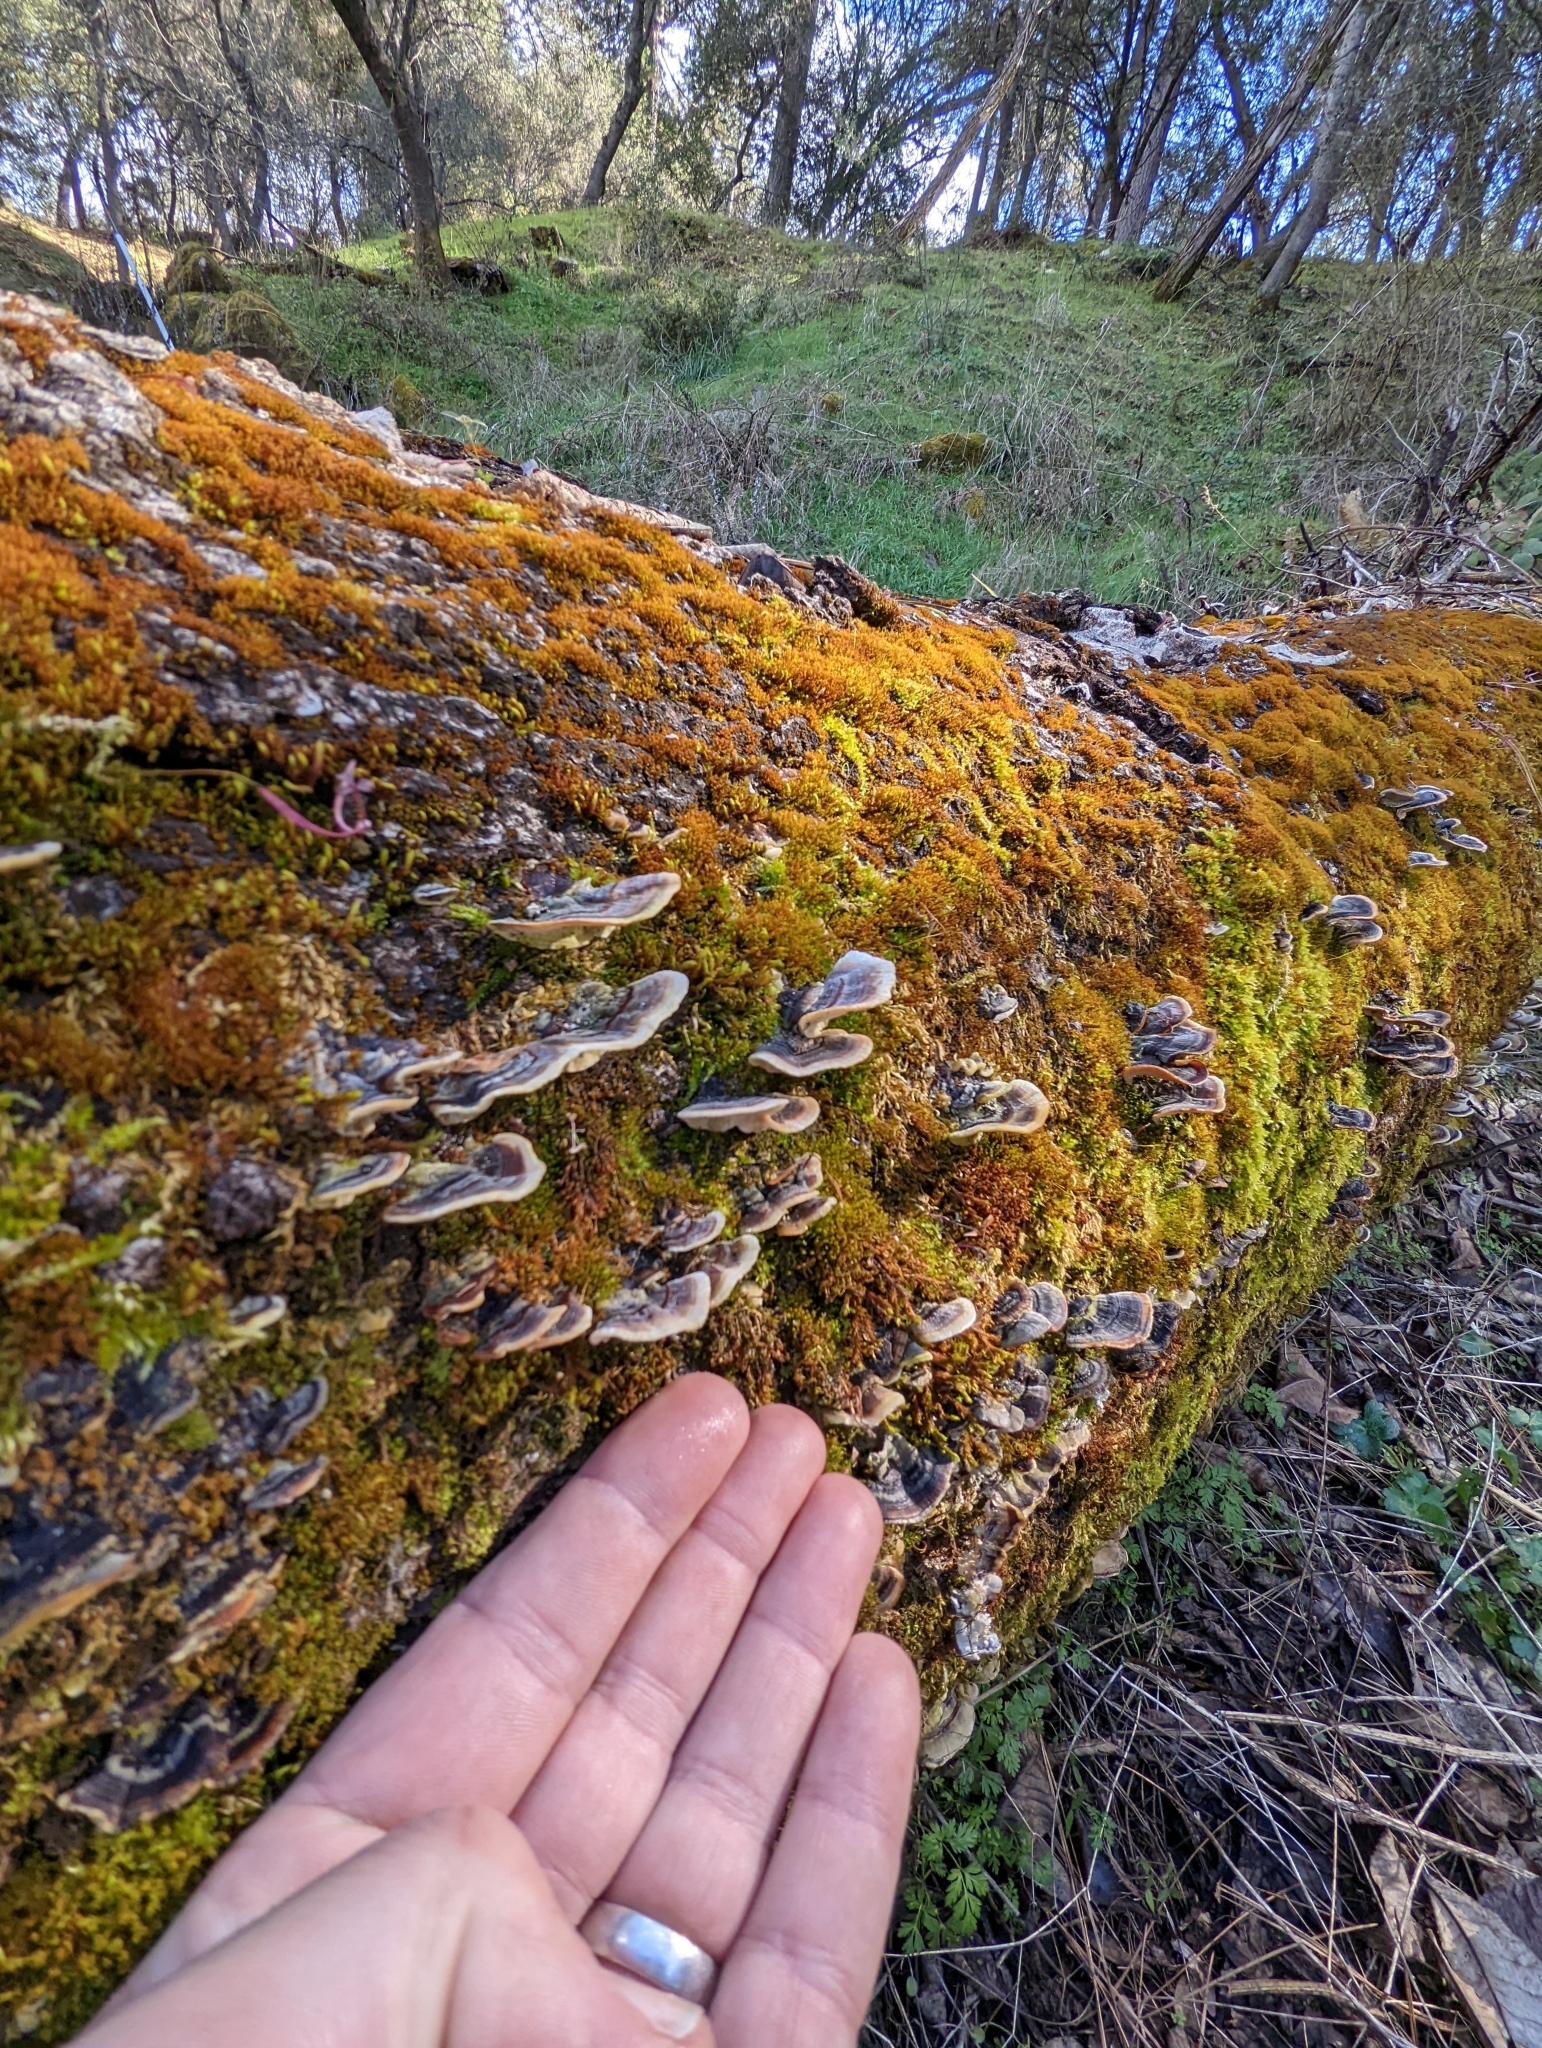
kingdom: Fungi
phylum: Basidiomycota
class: Agaricomycetes
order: Polyporales
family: Polyporaceae
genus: Trametes
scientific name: Trametes versicolor
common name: Turkeytail
